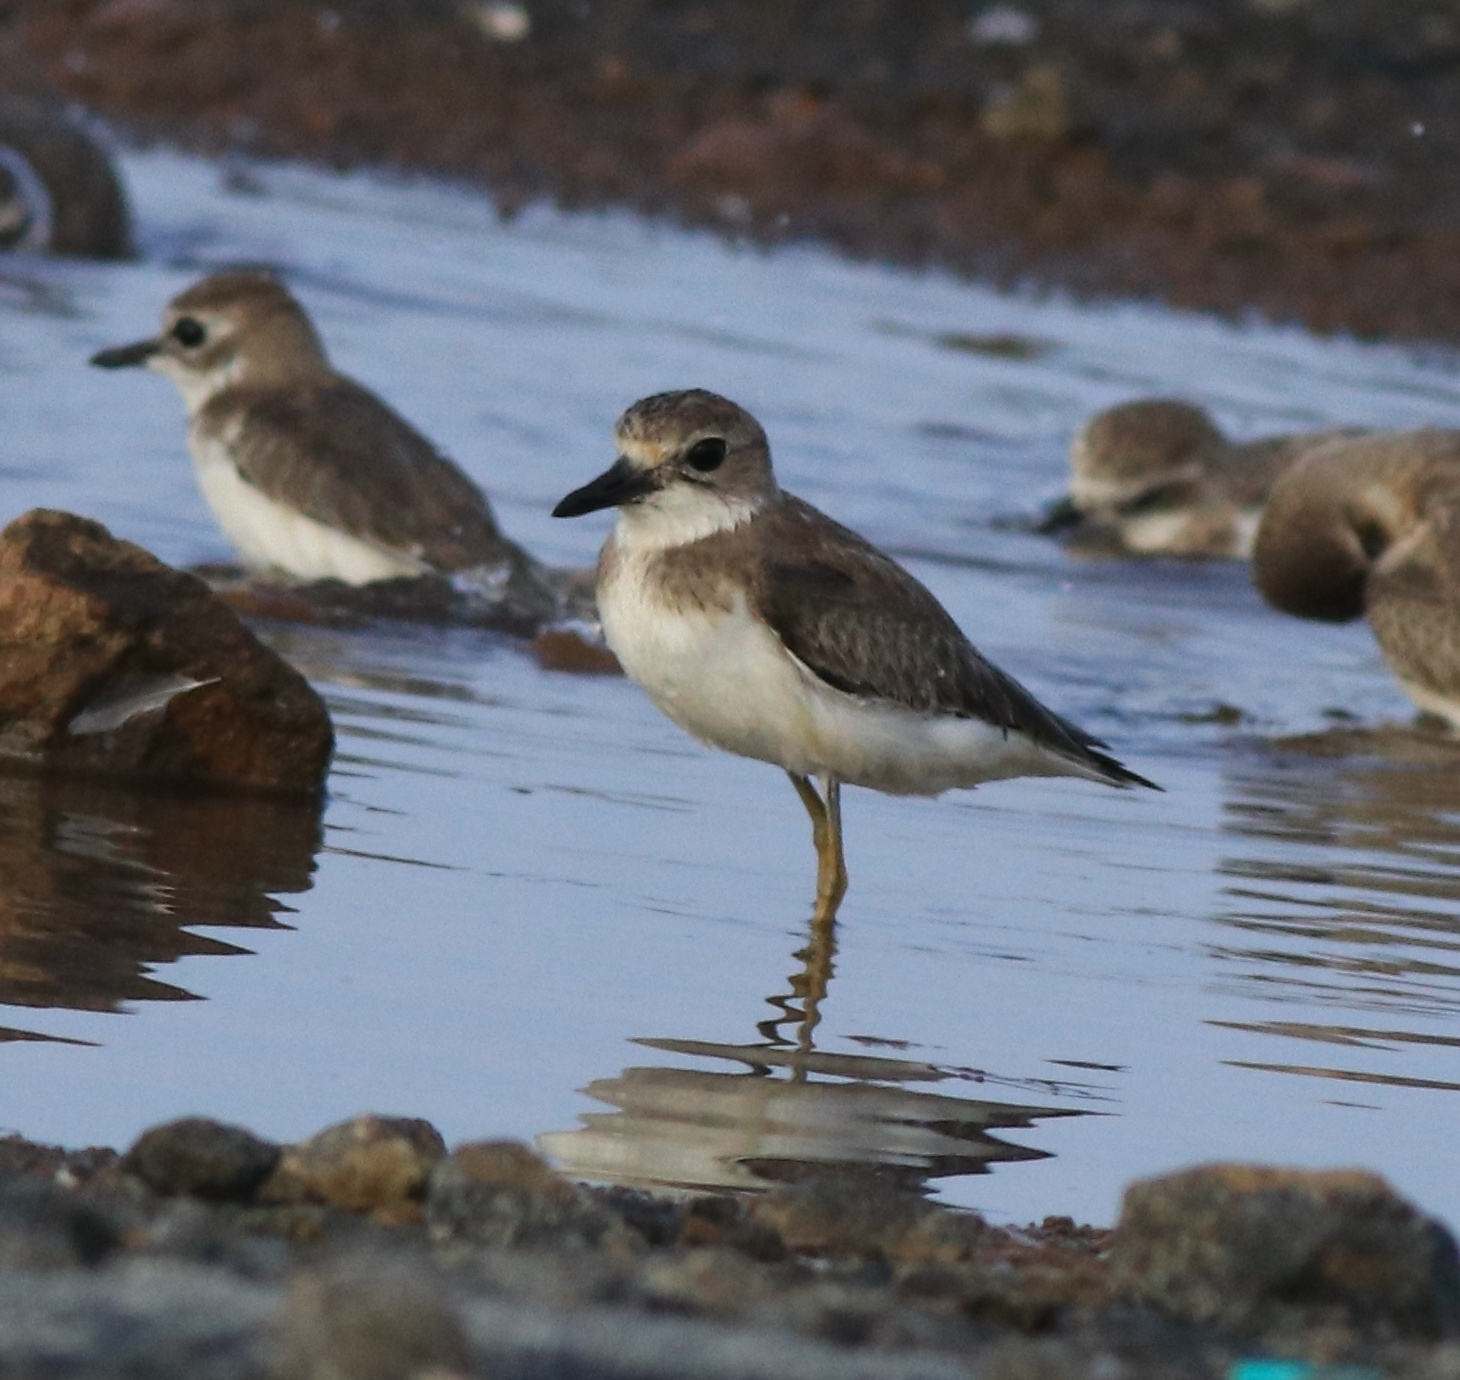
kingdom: Animalia
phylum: Chordata
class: Aves
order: Charadriiformes
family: Charadriidae
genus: Charadrius
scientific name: Charadrius leschenaultii
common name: Greater sand plover
